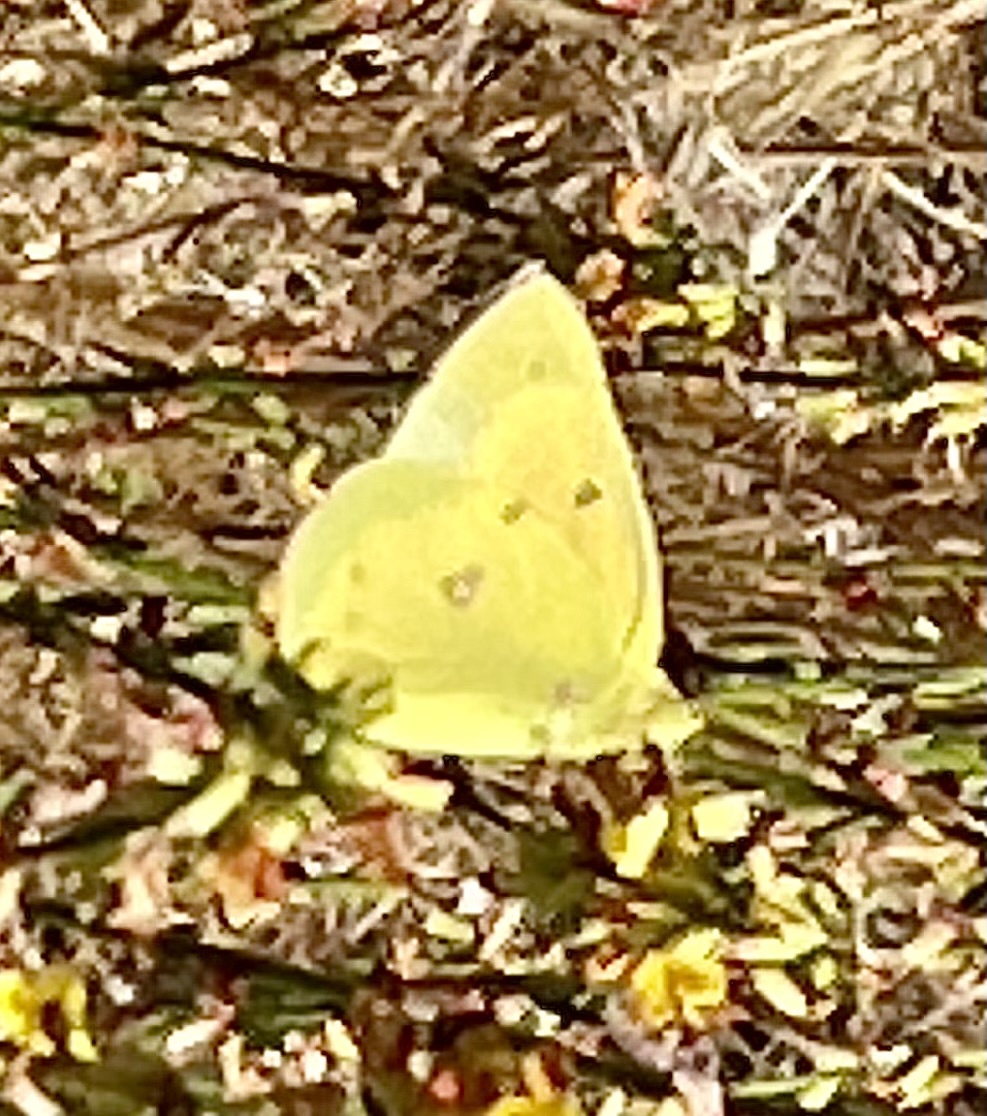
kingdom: Animalia
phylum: Arthropoda
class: Insecta
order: Lepidoptera
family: Pieridae
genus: Colias
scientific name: Colias eurytheme
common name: Alfalfa butterfly
